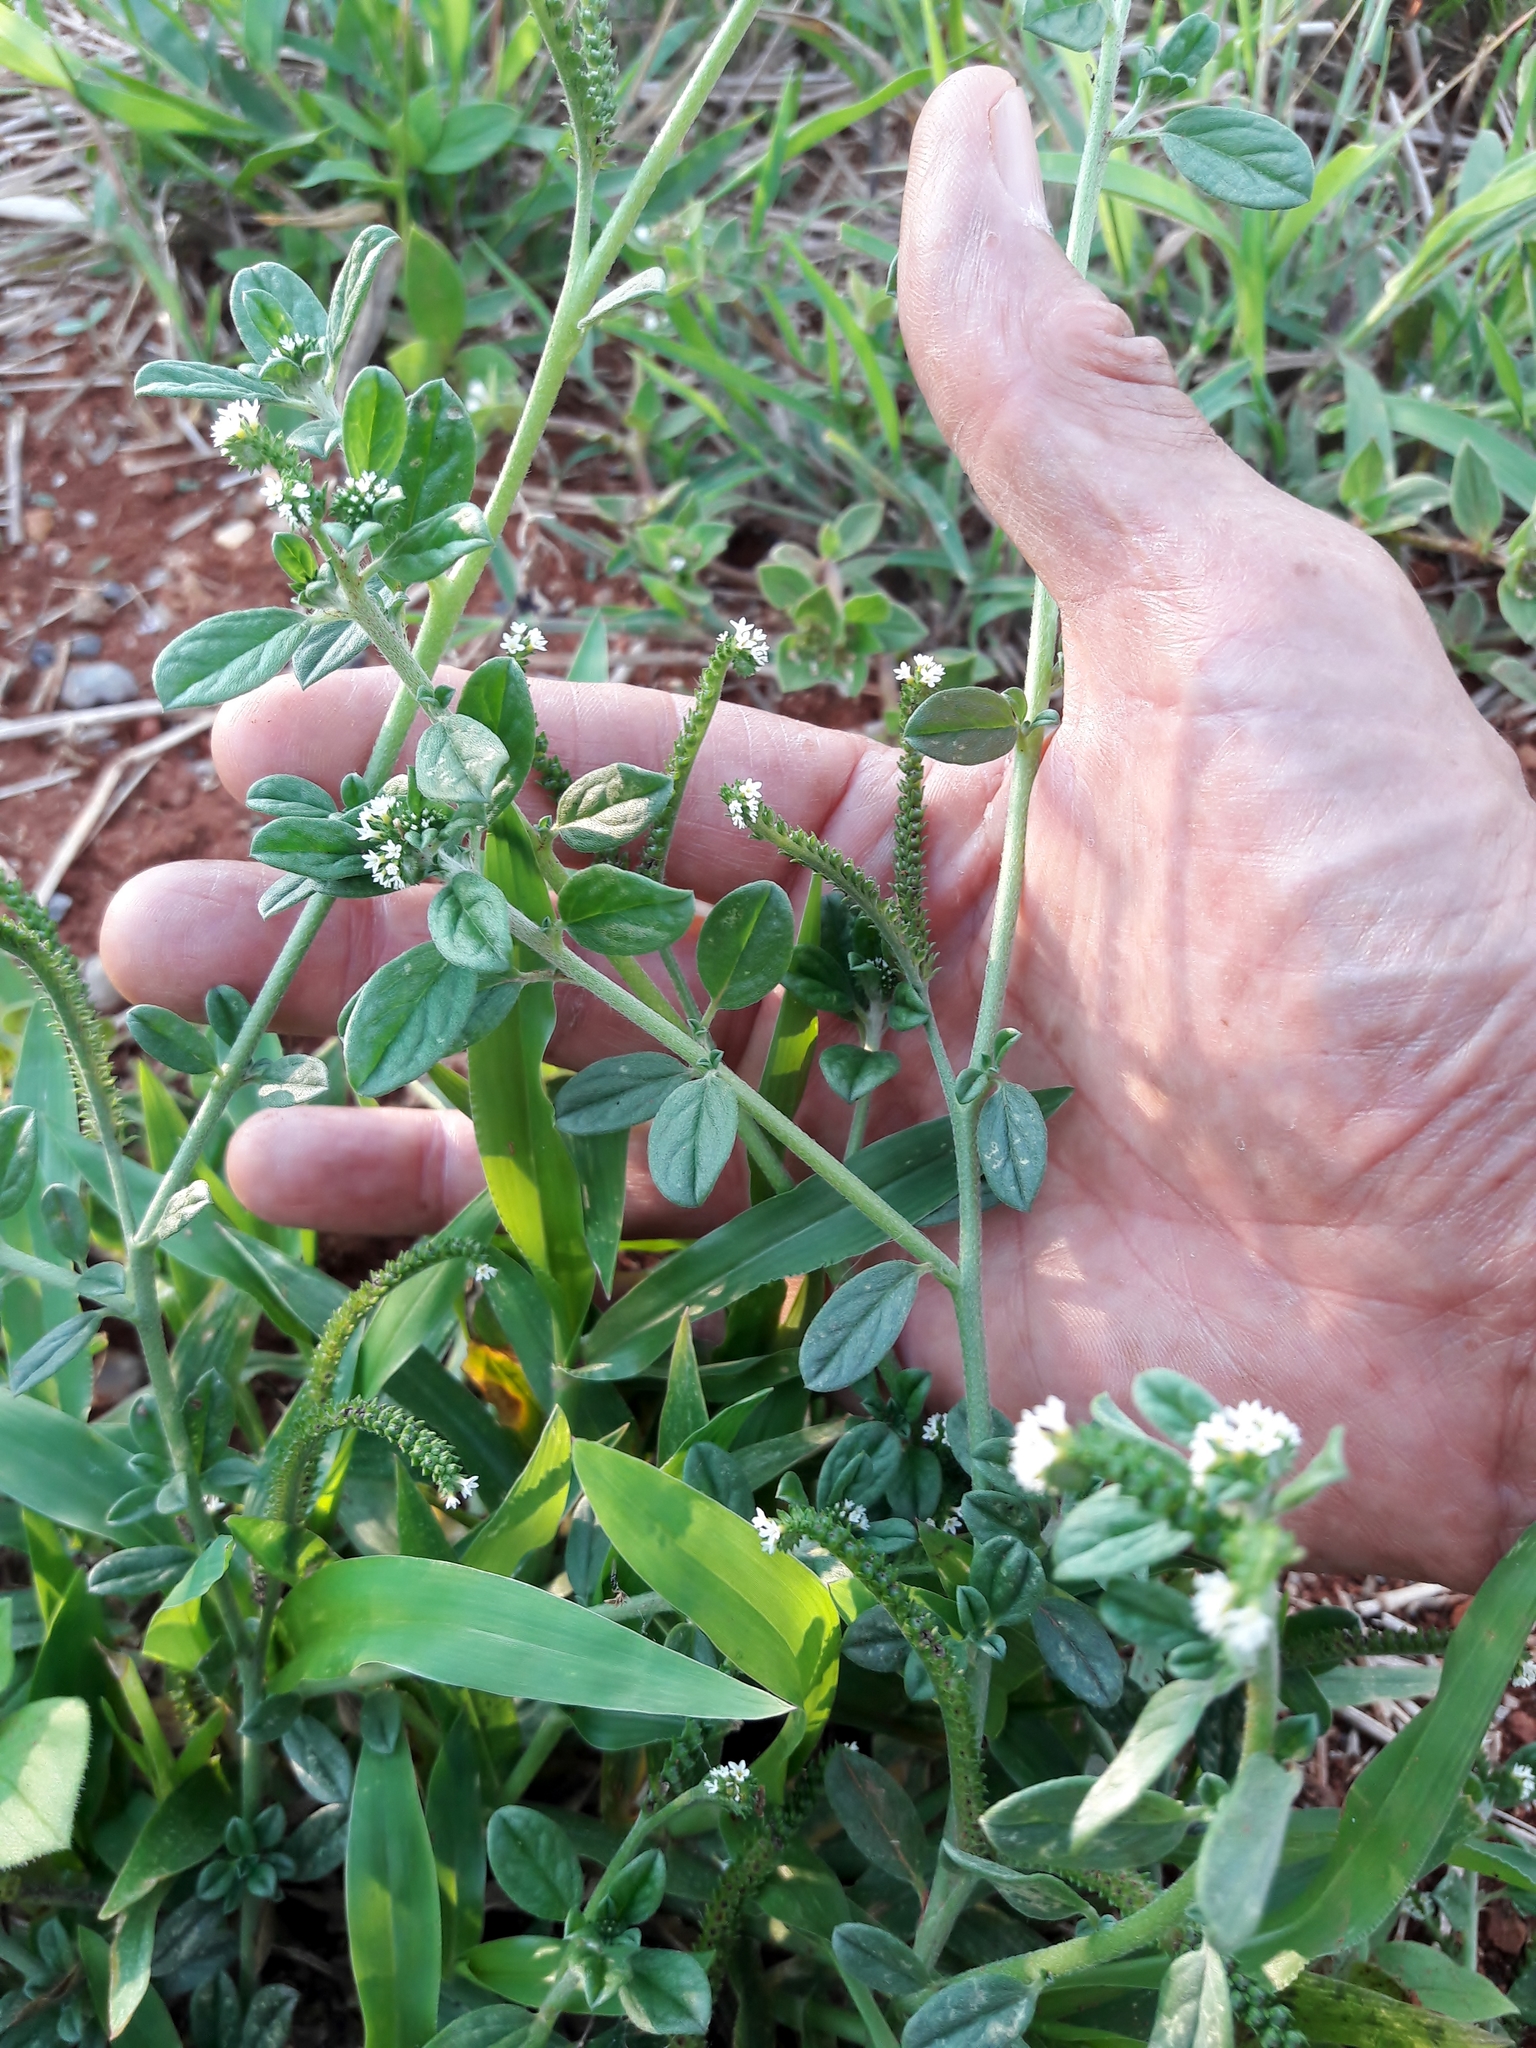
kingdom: Plantae
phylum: Tracheophyta
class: Magnoliopsida
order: Boraginales
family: Heliotropiaceae
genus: Euploca
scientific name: Euploca procumbens
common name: Fourspike heliotrope
